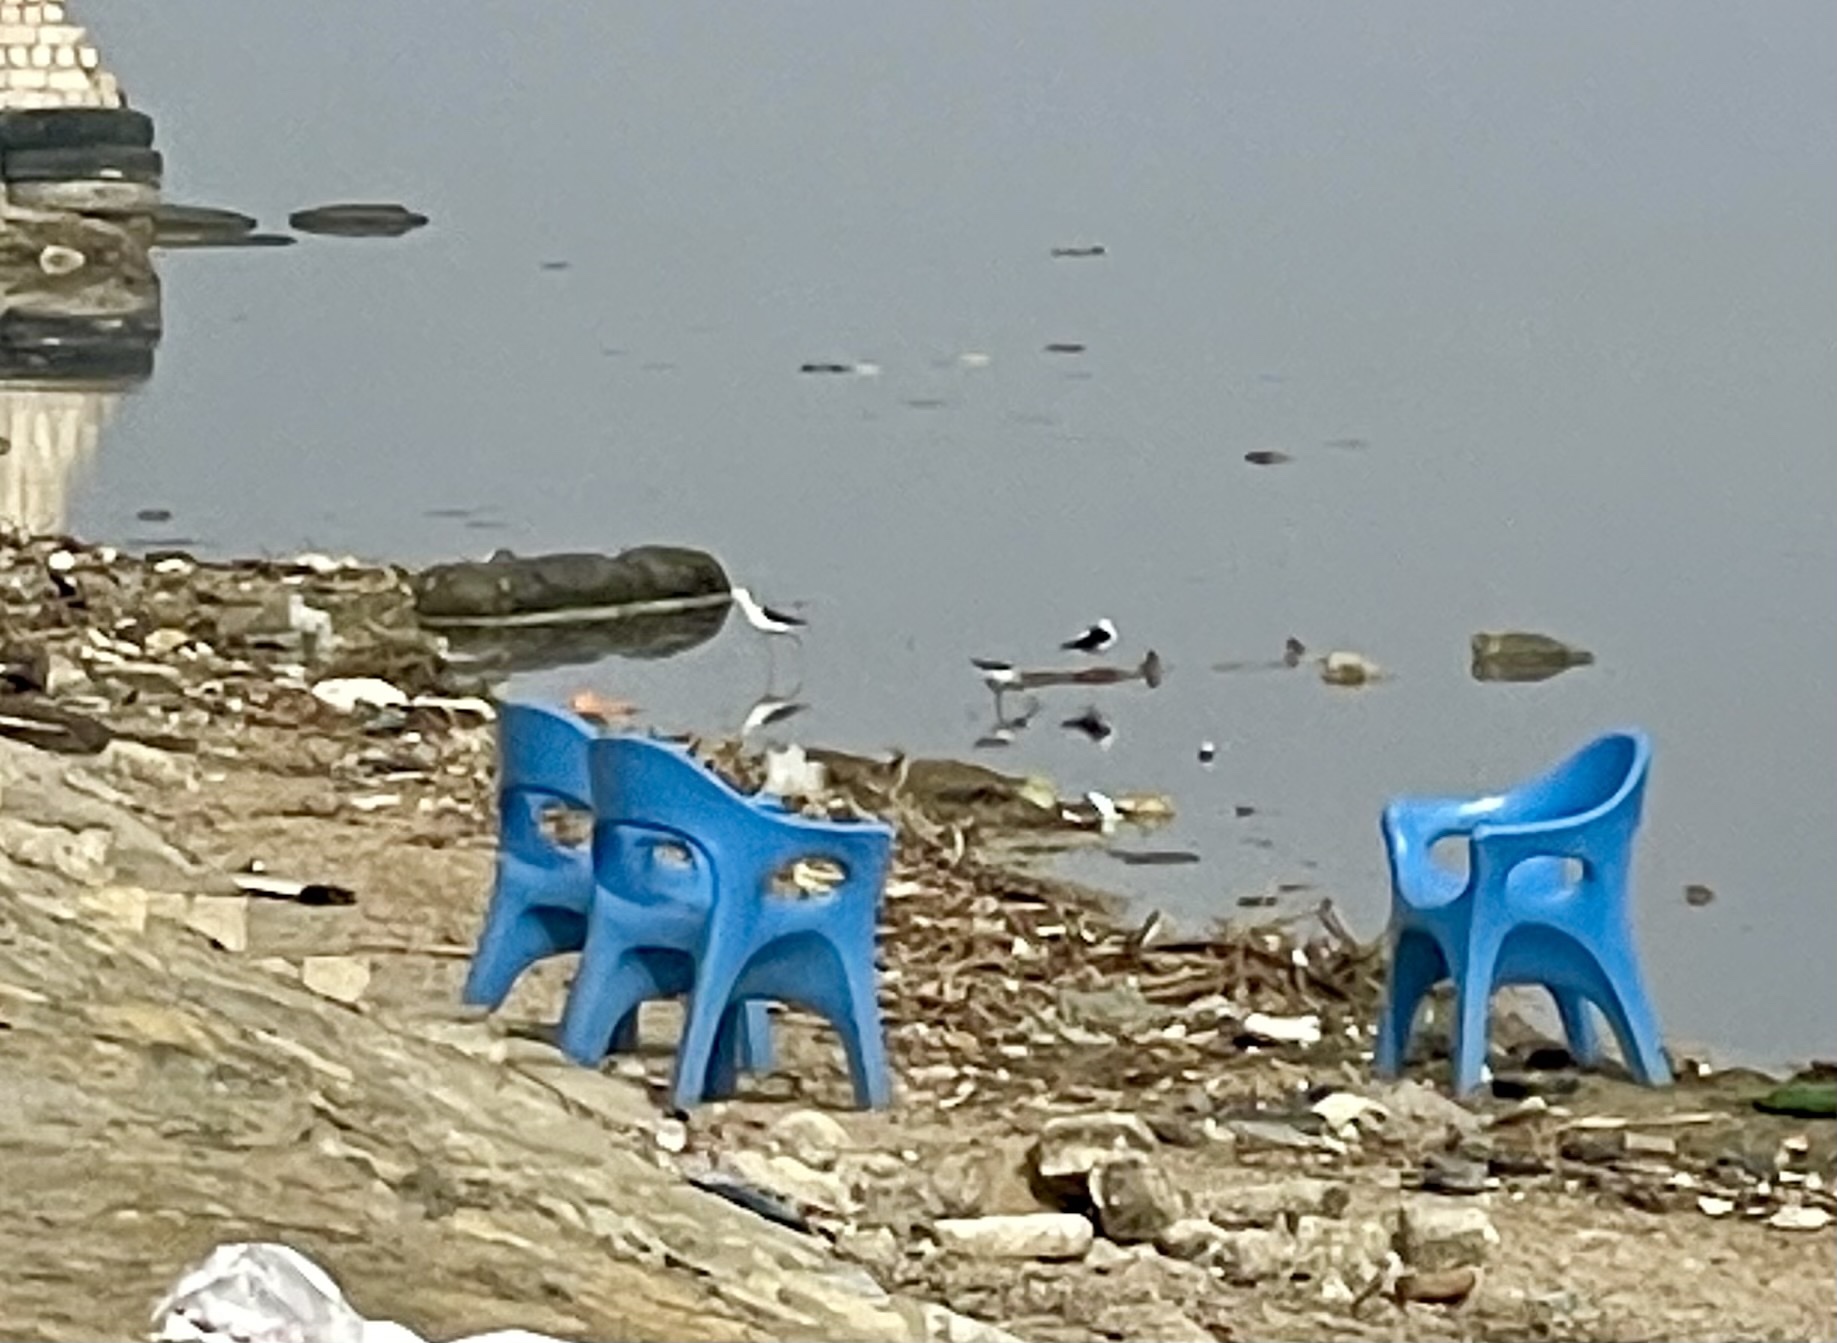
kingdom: Animalia
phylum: Chordata
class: Aves
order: Charadriiformes
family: Recurvirostridae
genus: Himantopus
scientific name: Himantopus himantopus
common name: Black-winged stilt
